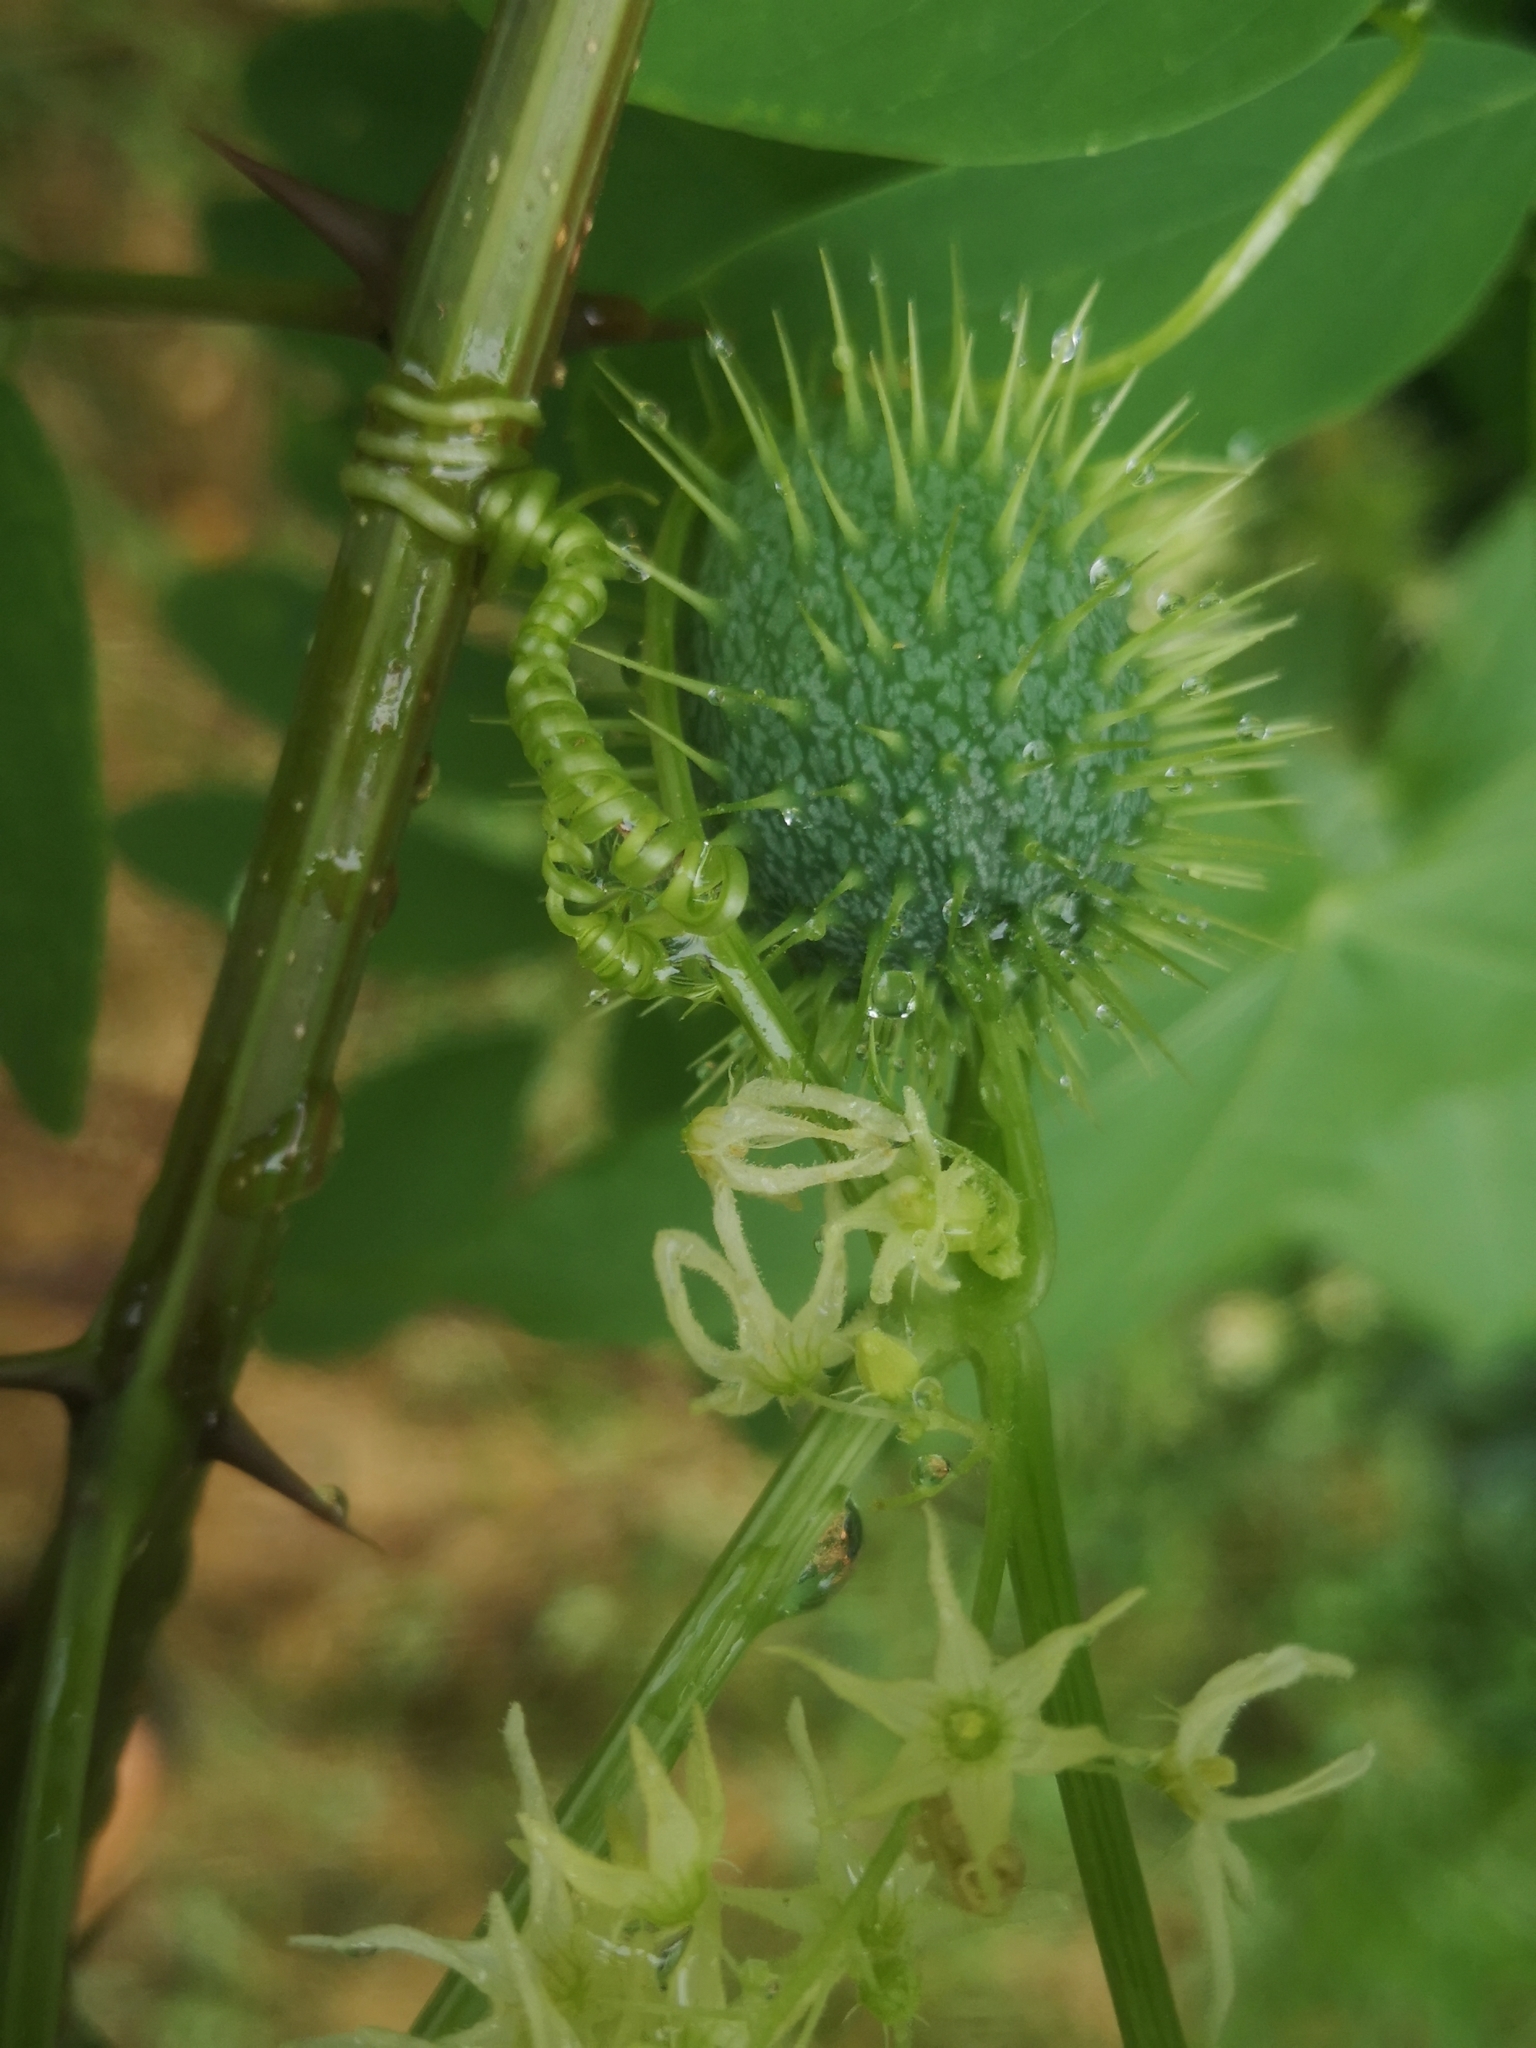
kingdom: Plantae
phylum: Tracheophyta
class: Magnoliopsida
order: Cucurbitales
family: Cucurbitaceae
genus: Echinocystis
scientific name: Echinocystis lobata
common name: Wild cucumber
